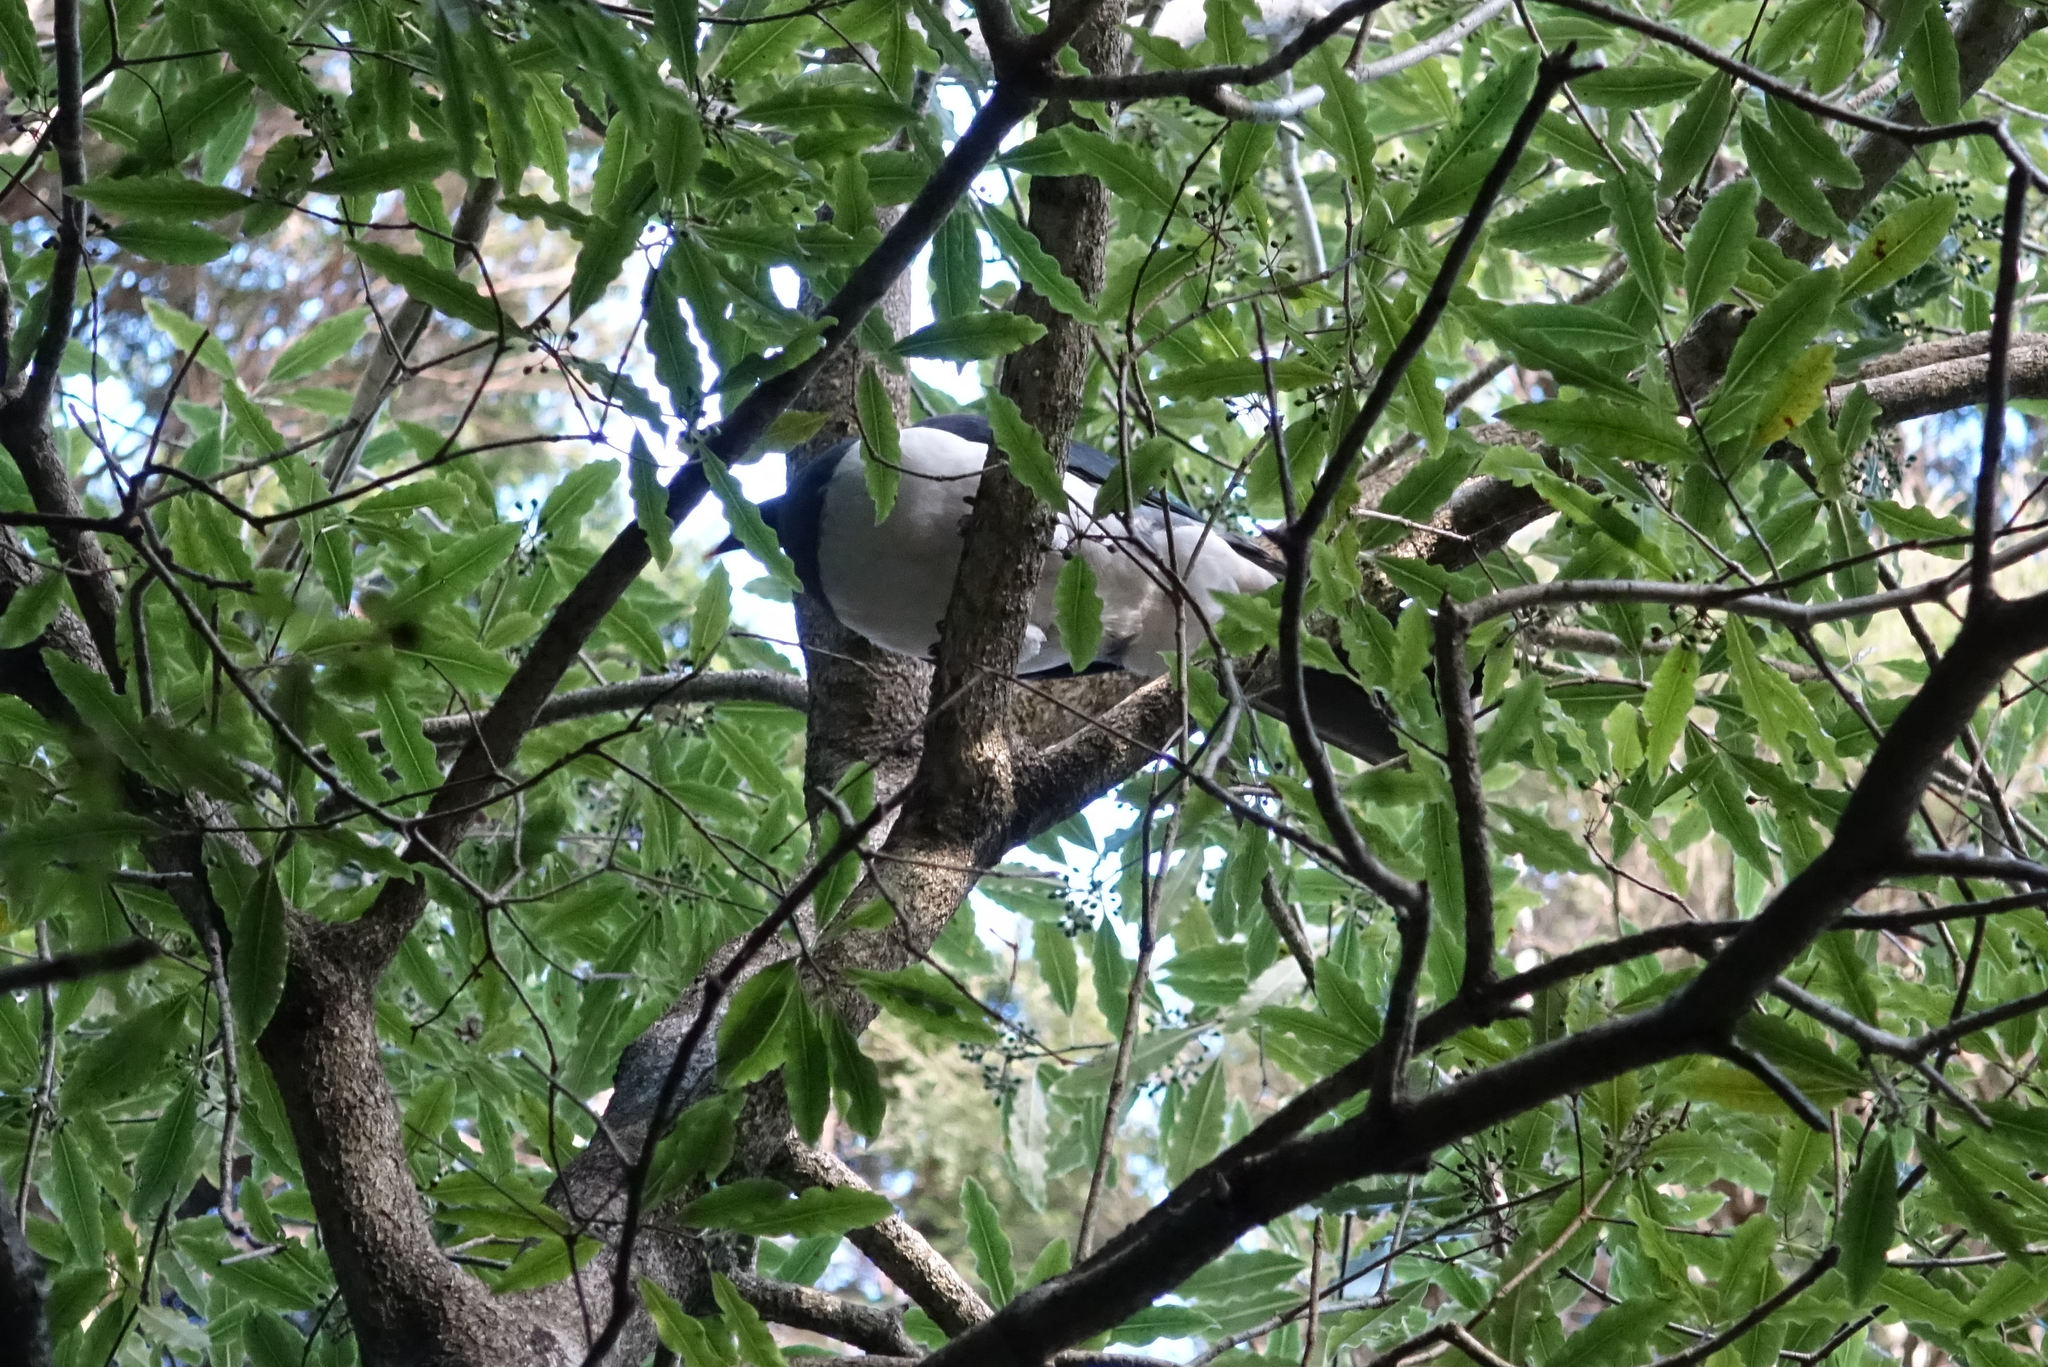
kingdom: Animalia
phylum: Chordata
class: Aves
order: Columbiformes
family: Columbidae
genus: Hemiphaga
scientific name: Hemiphaga novaeseelandiae
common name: New zealand pigeon
